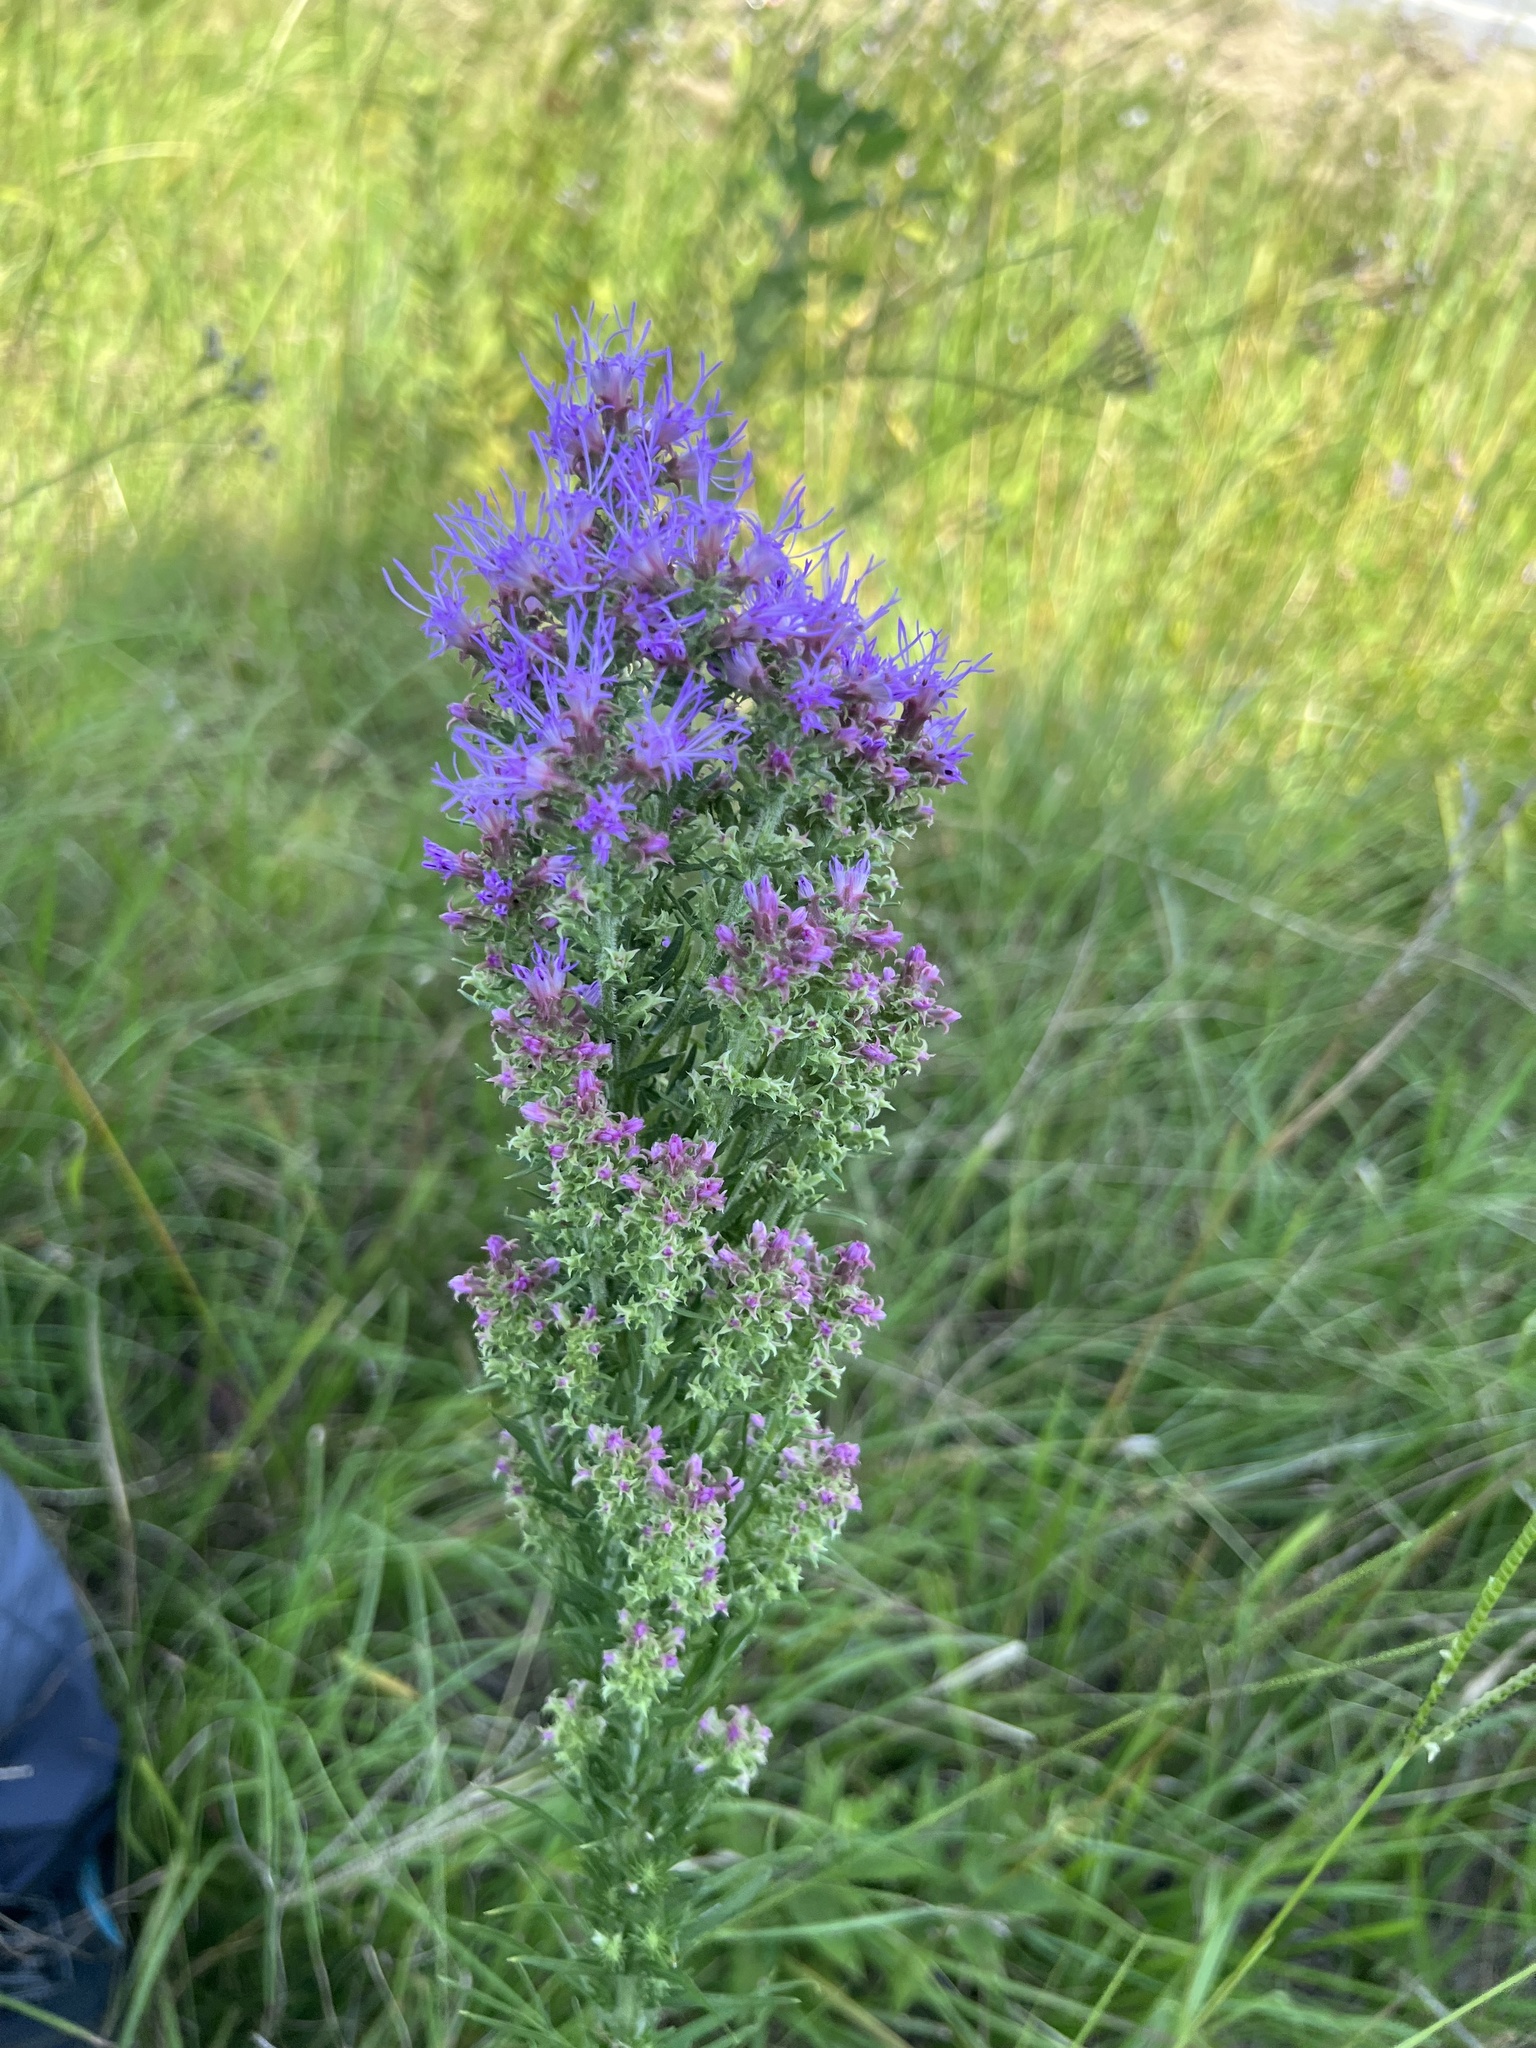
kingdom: Plantae
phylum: Tracheophyta
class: Magnoliopsida
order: Asterales
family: Asteraceae
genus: Liatris
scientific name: Liatris pycnostachya
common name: Cattail gayfeather
